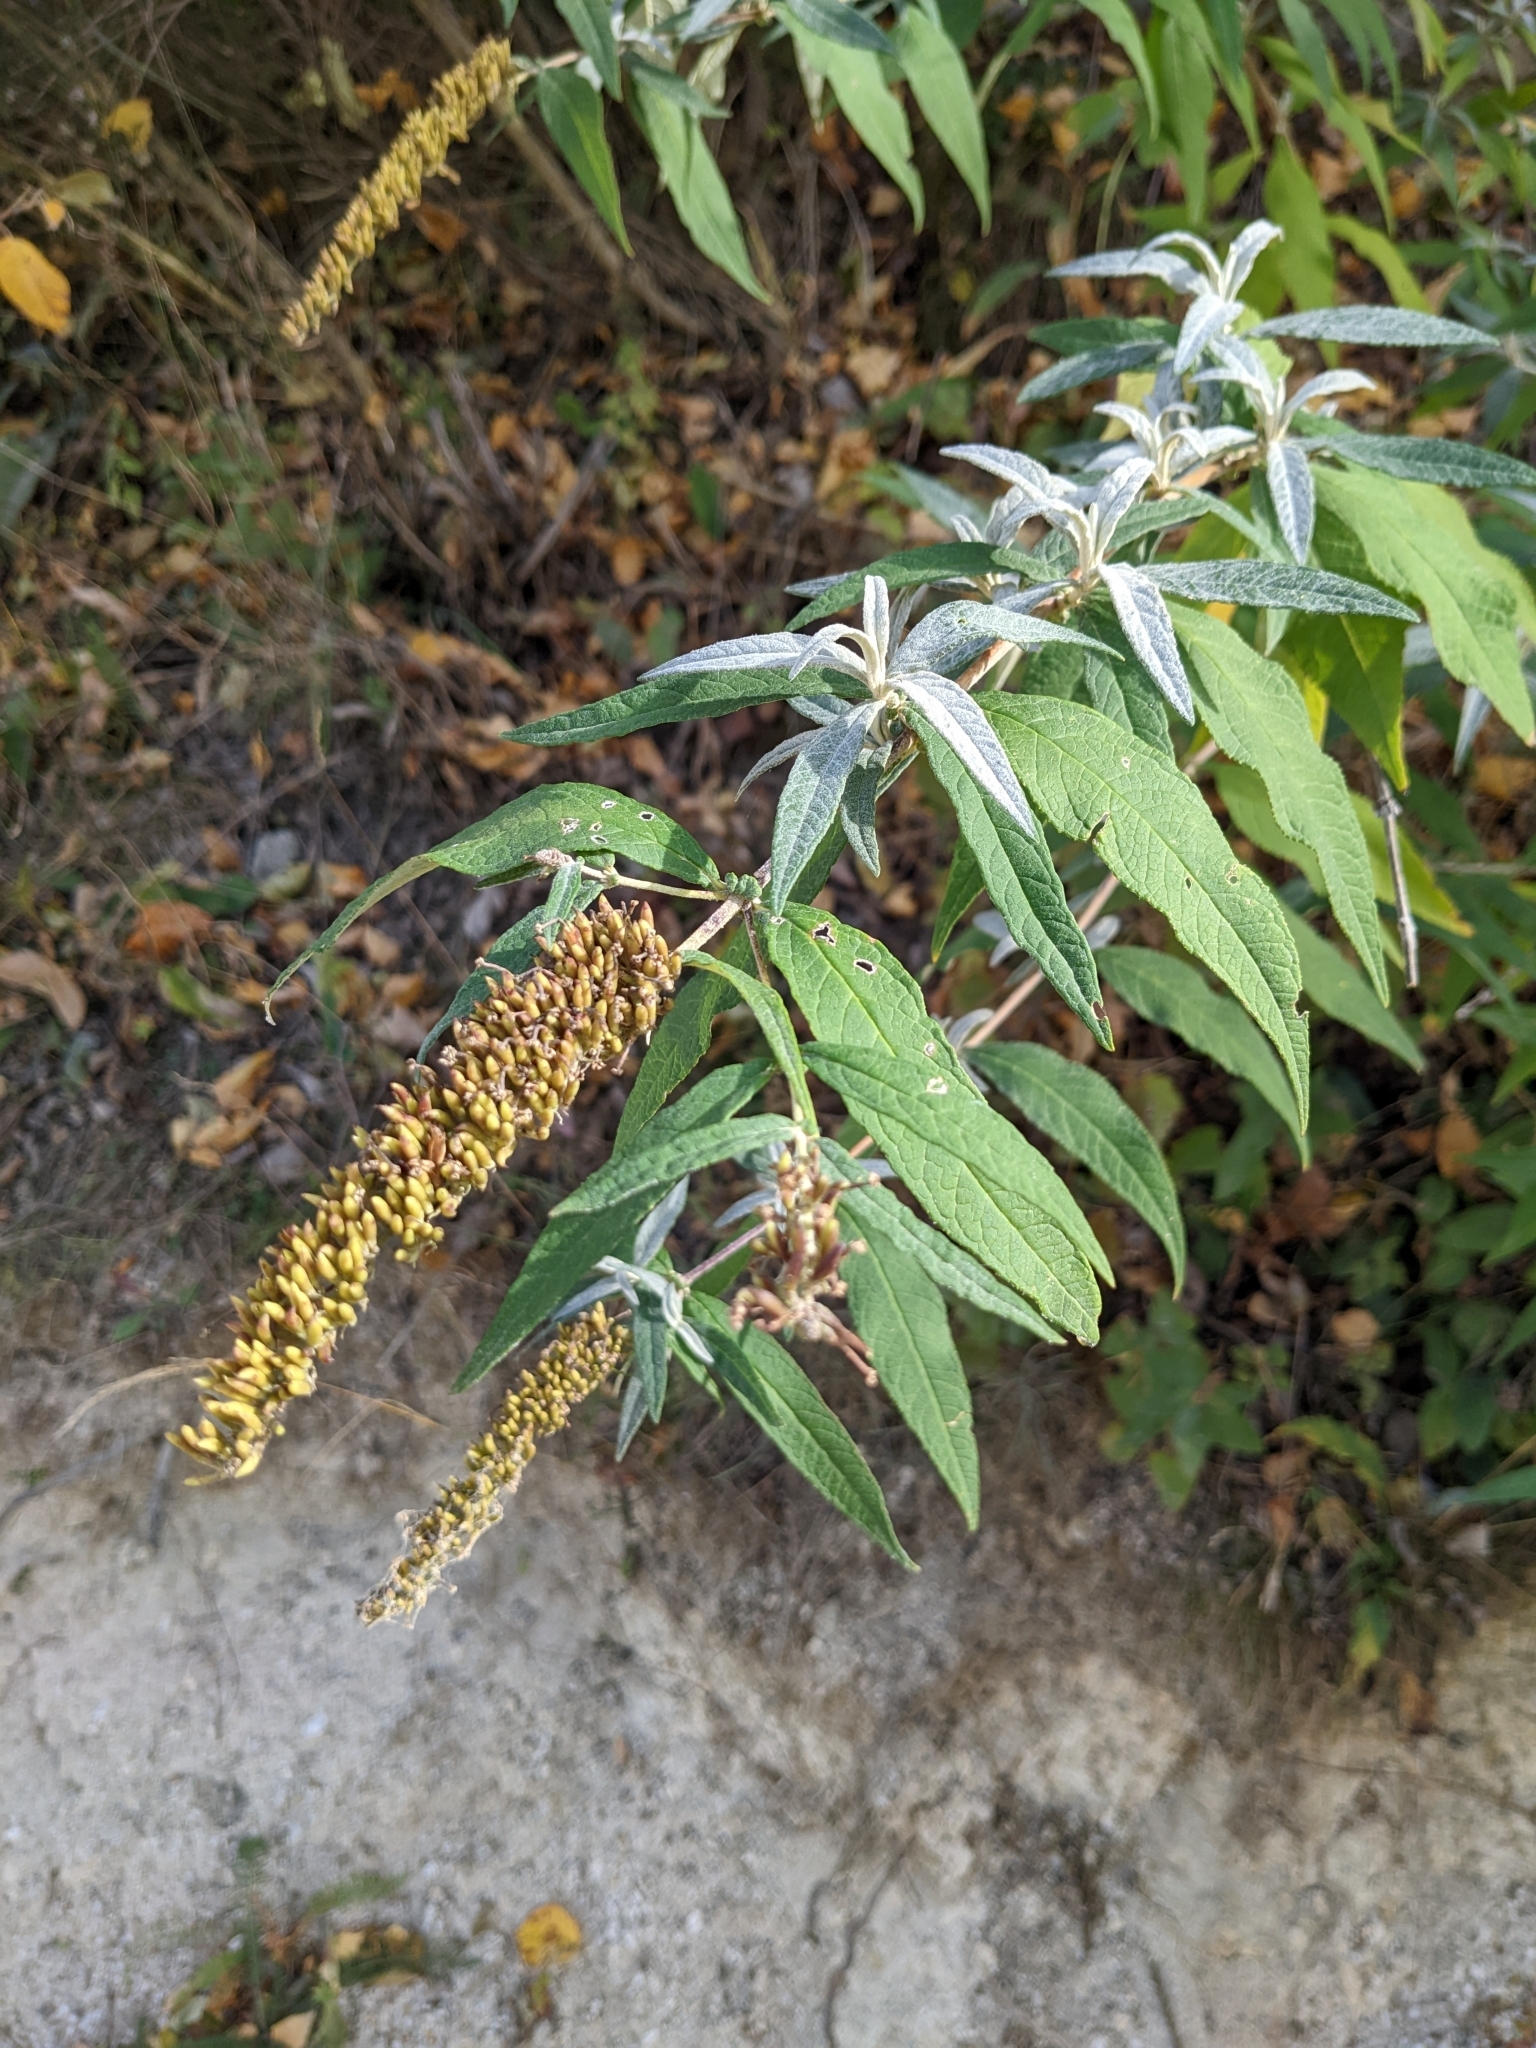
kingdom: Plantae
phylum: Tracheophyta
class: Magnoliopsida
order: Lamiales
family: Scrophulariaceae
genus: Buddleja
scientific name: Buddleja davidii
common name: Butterfly-bush
